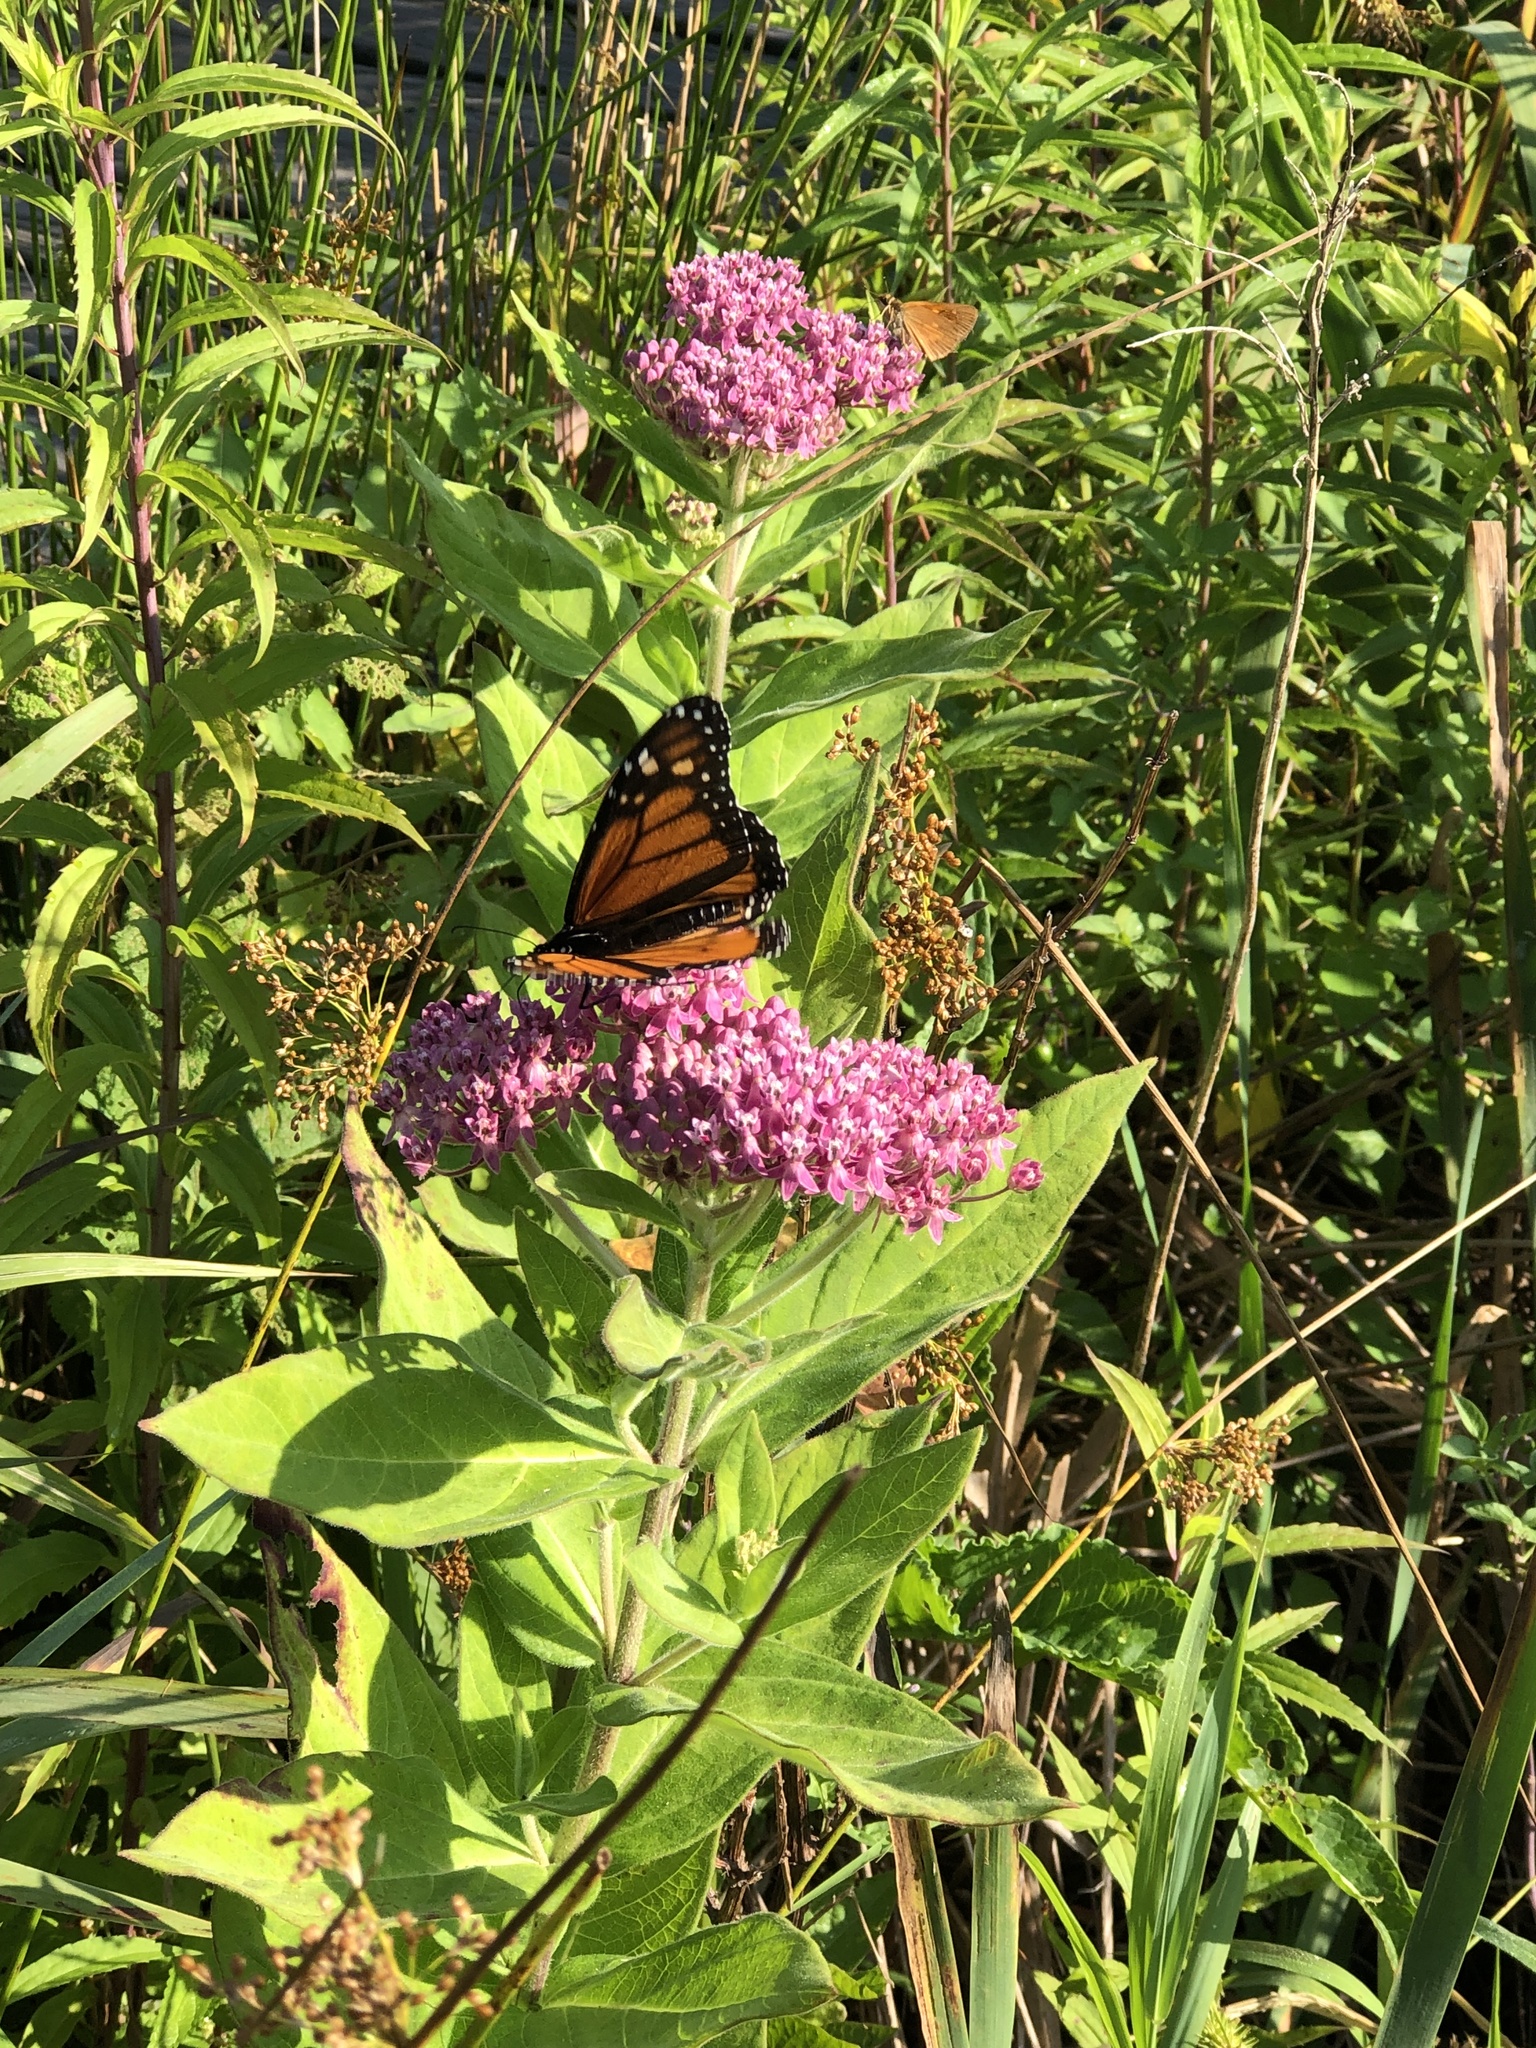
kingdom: Animalia
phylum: Arthropoda
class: Insecta
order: Lepidoptera
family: Nymphalidae
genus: Danaus
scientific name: Danaus plexippus
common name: Monarch
